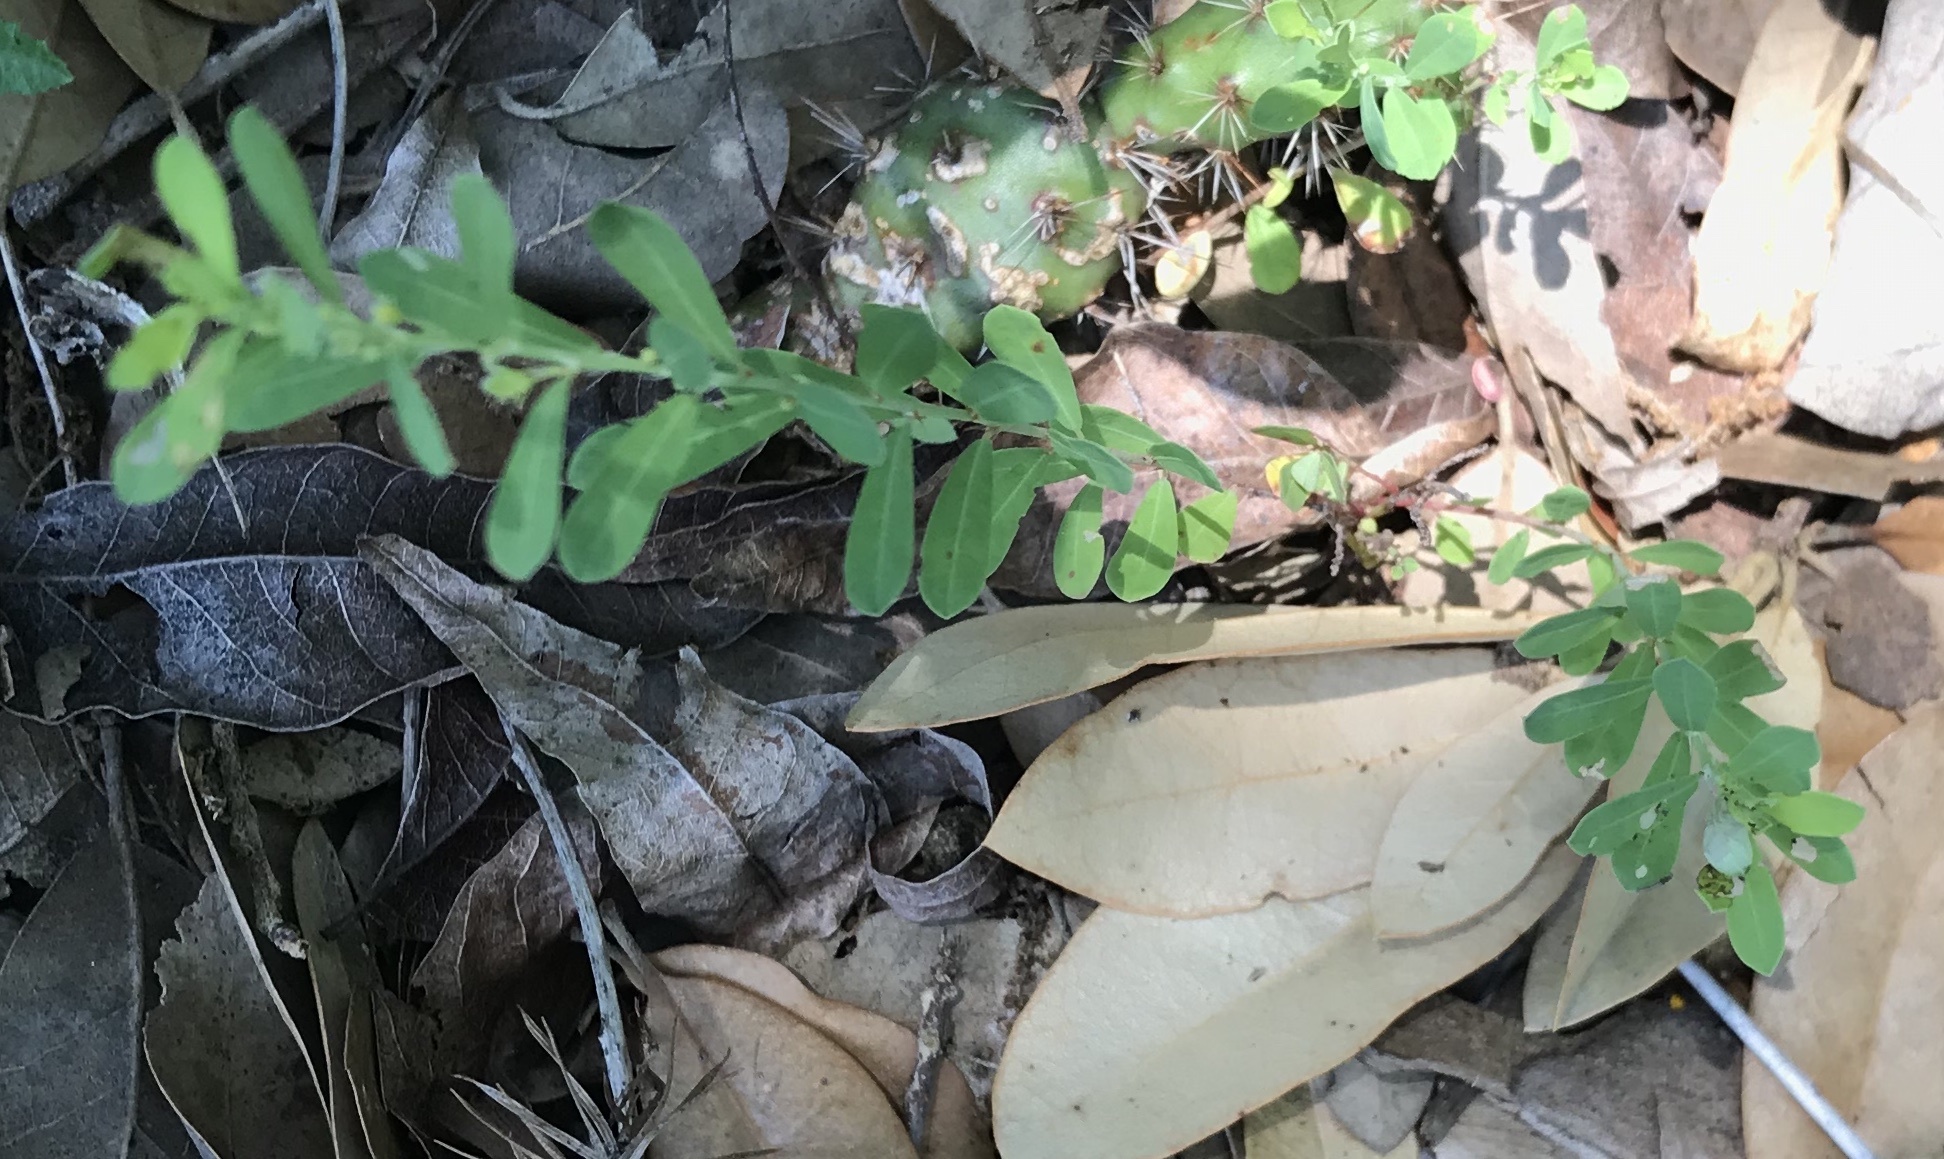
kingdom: Plantae
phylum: Tracheophyta
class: Magnoliopsida
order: Malpighiales
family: Phyllanthaceae
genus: Phyllanthus
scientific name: Phyllanthus polygonoides
